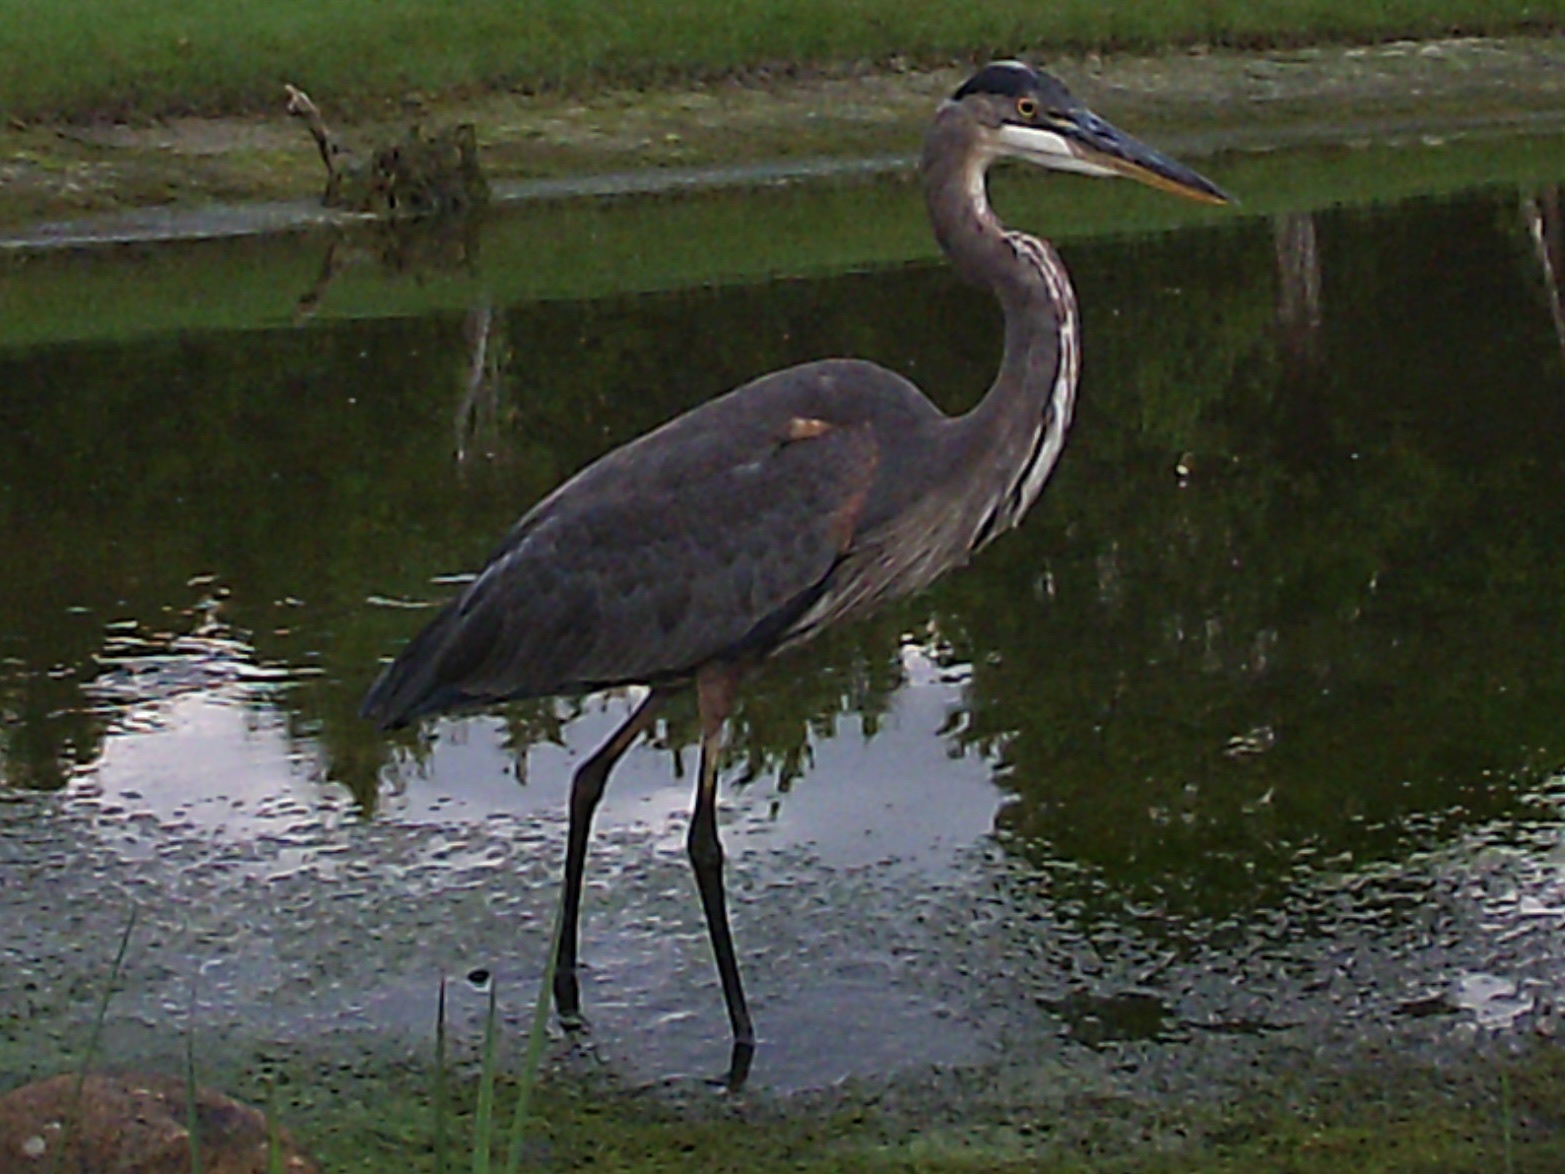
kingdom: Animalia
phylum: Chordata
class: Aves
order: Pelecaniformes
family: Ardeidae
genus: Ardea
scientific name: Ardea herodias
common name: Great blue heron
